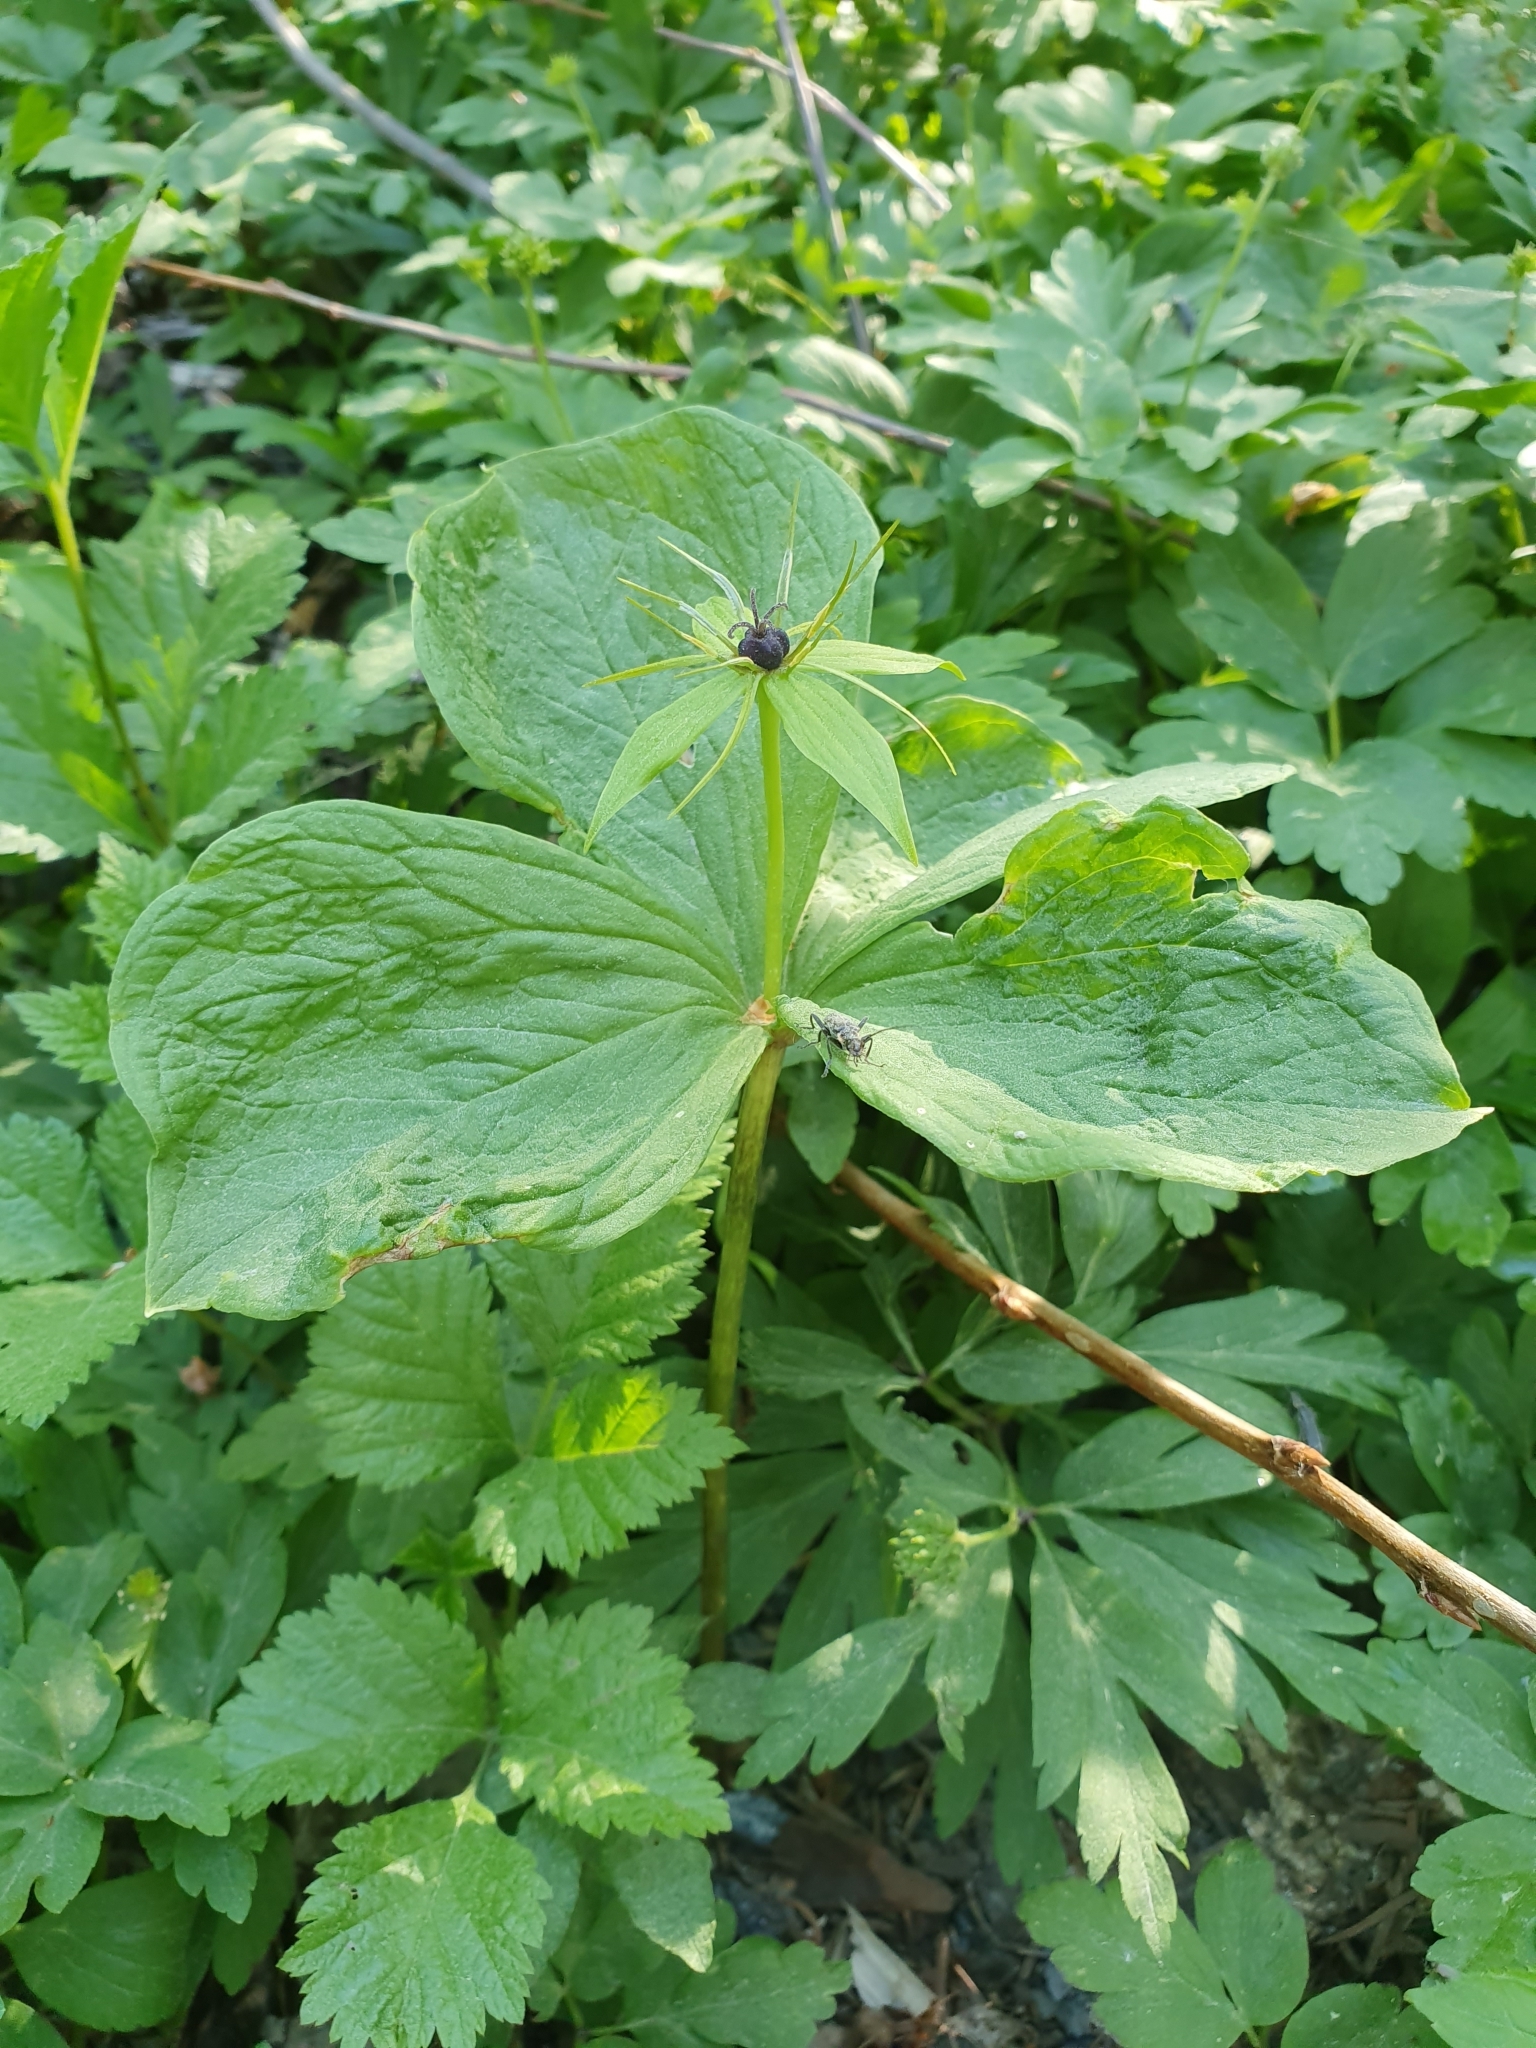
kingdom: Plantae
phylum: Tracheophyta
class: Liliopsida
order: Liliales
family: Melanthiaceae
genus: Paris
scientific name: Paris quadrifolia
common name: Herb-paris
